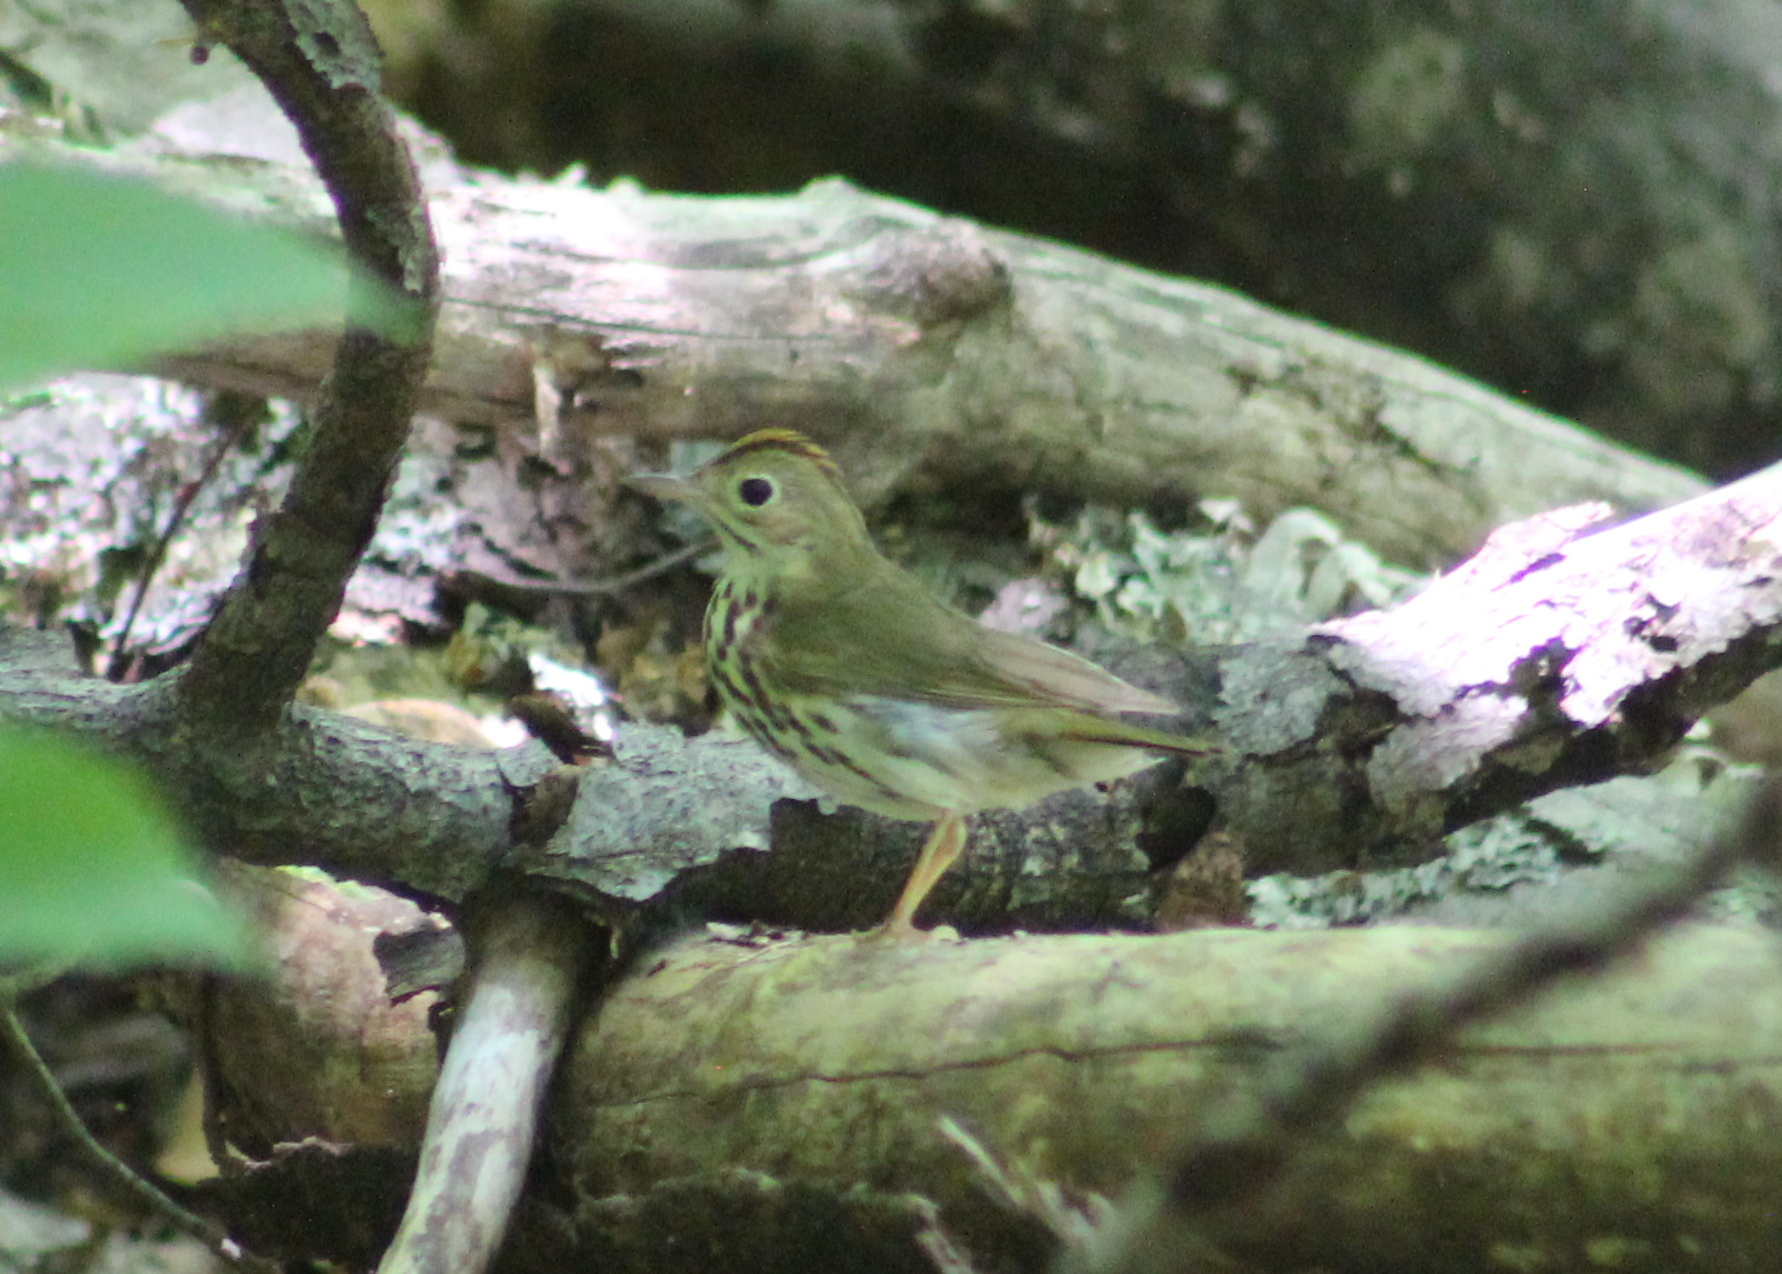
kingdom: Animalia
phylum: Chordata
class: Aves
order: Passeriformes
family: Parulidae
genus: Seiurus
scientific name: Seiurus aurocapilla
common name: Ovenbird
